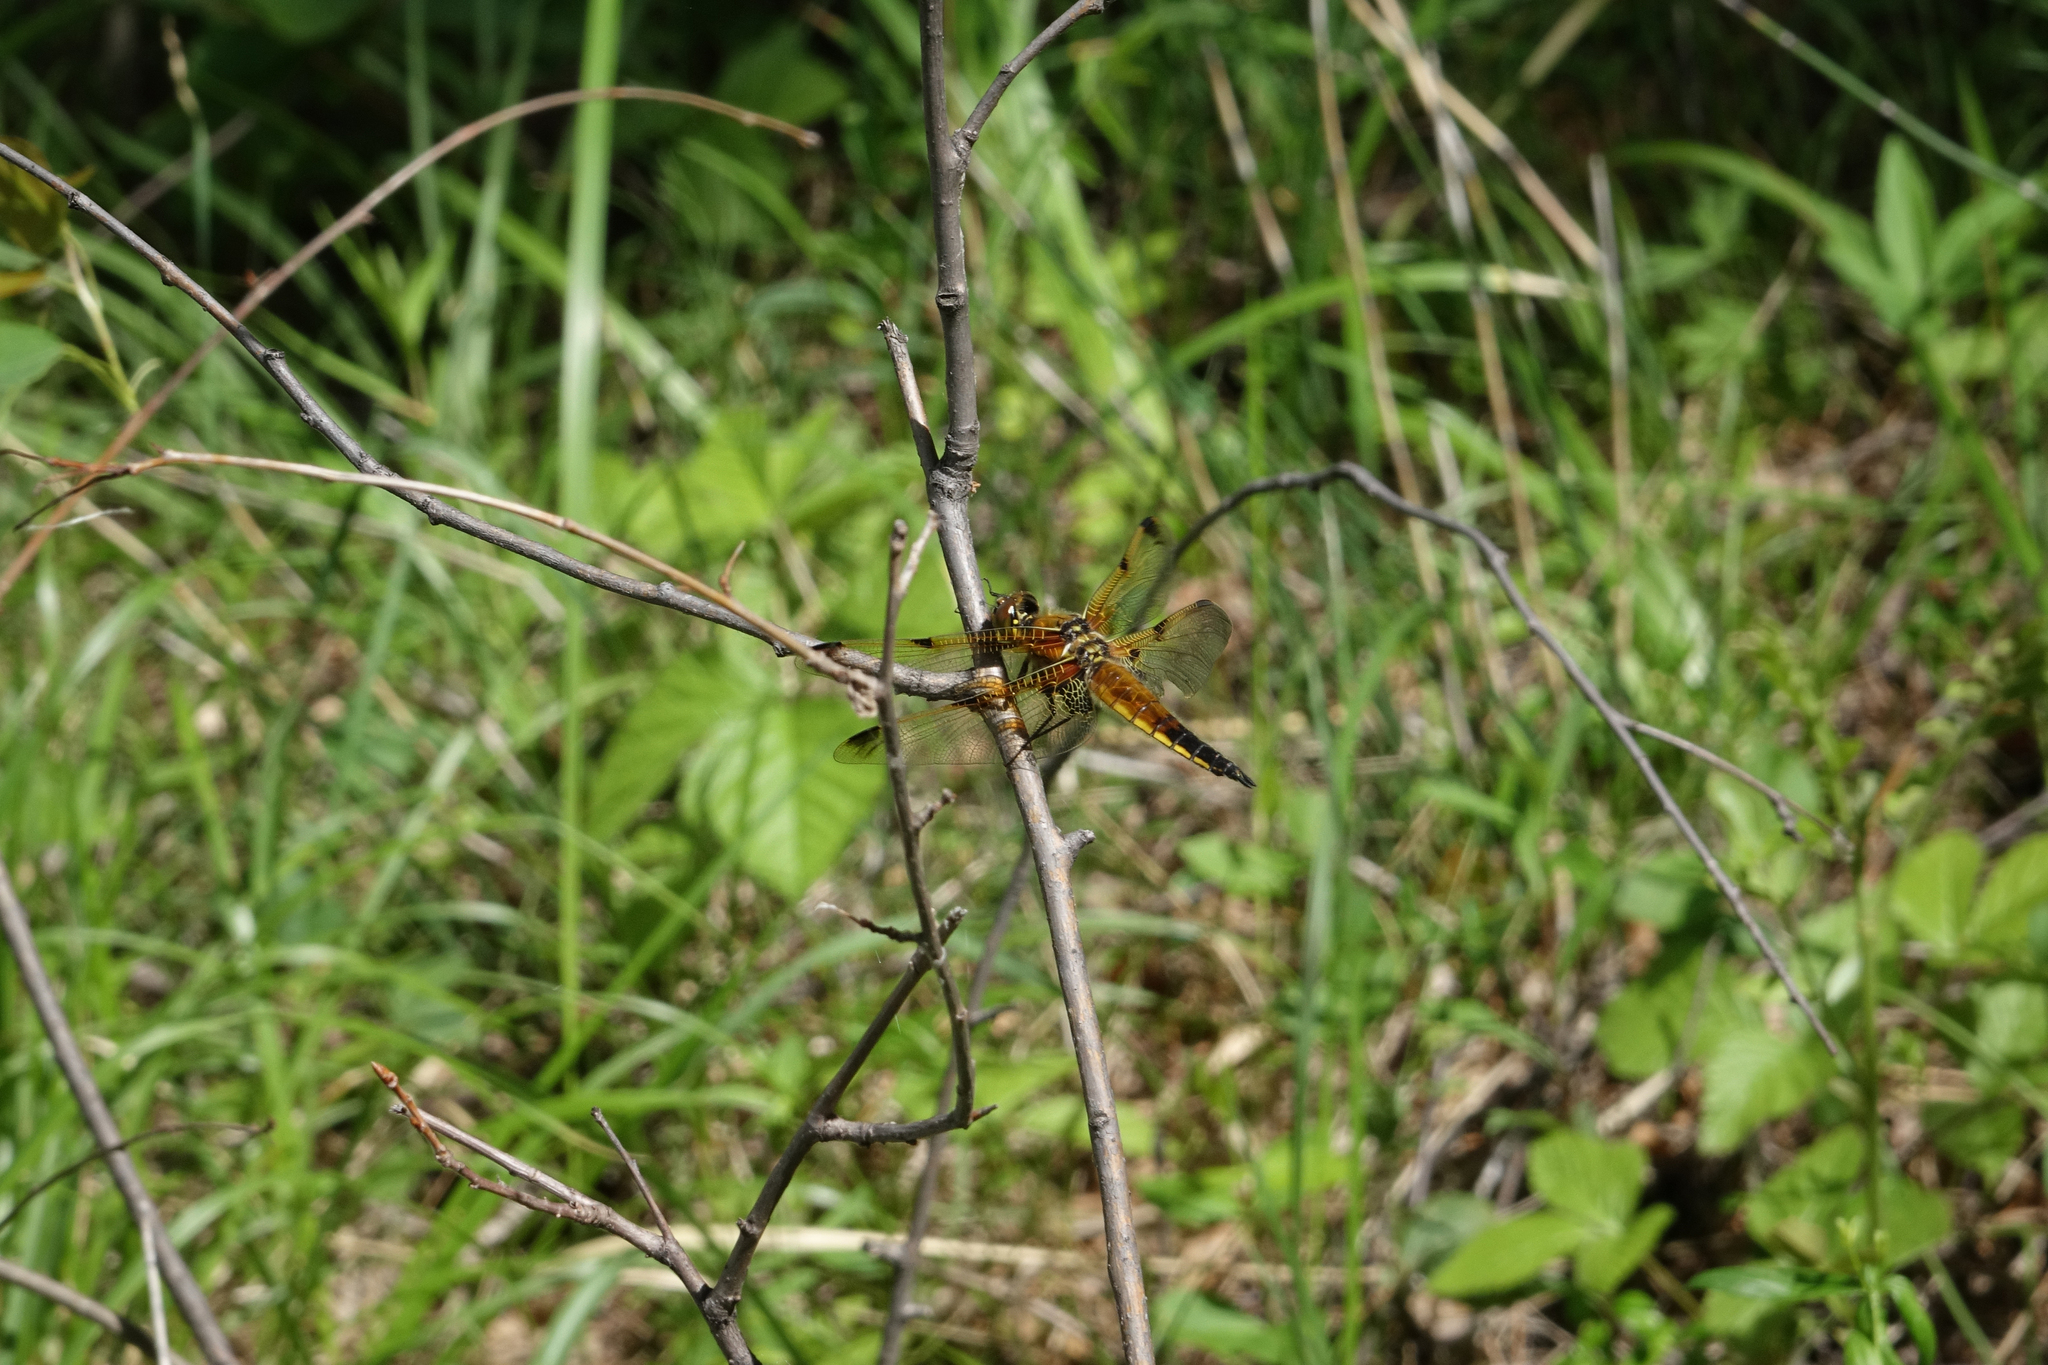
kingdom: Animalia
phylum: Arthropoda
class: Insecta
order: Odonata
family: Libellulidae
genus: Libellula
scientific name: Libellula quadrimaculata
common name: Four-spotted chaser
